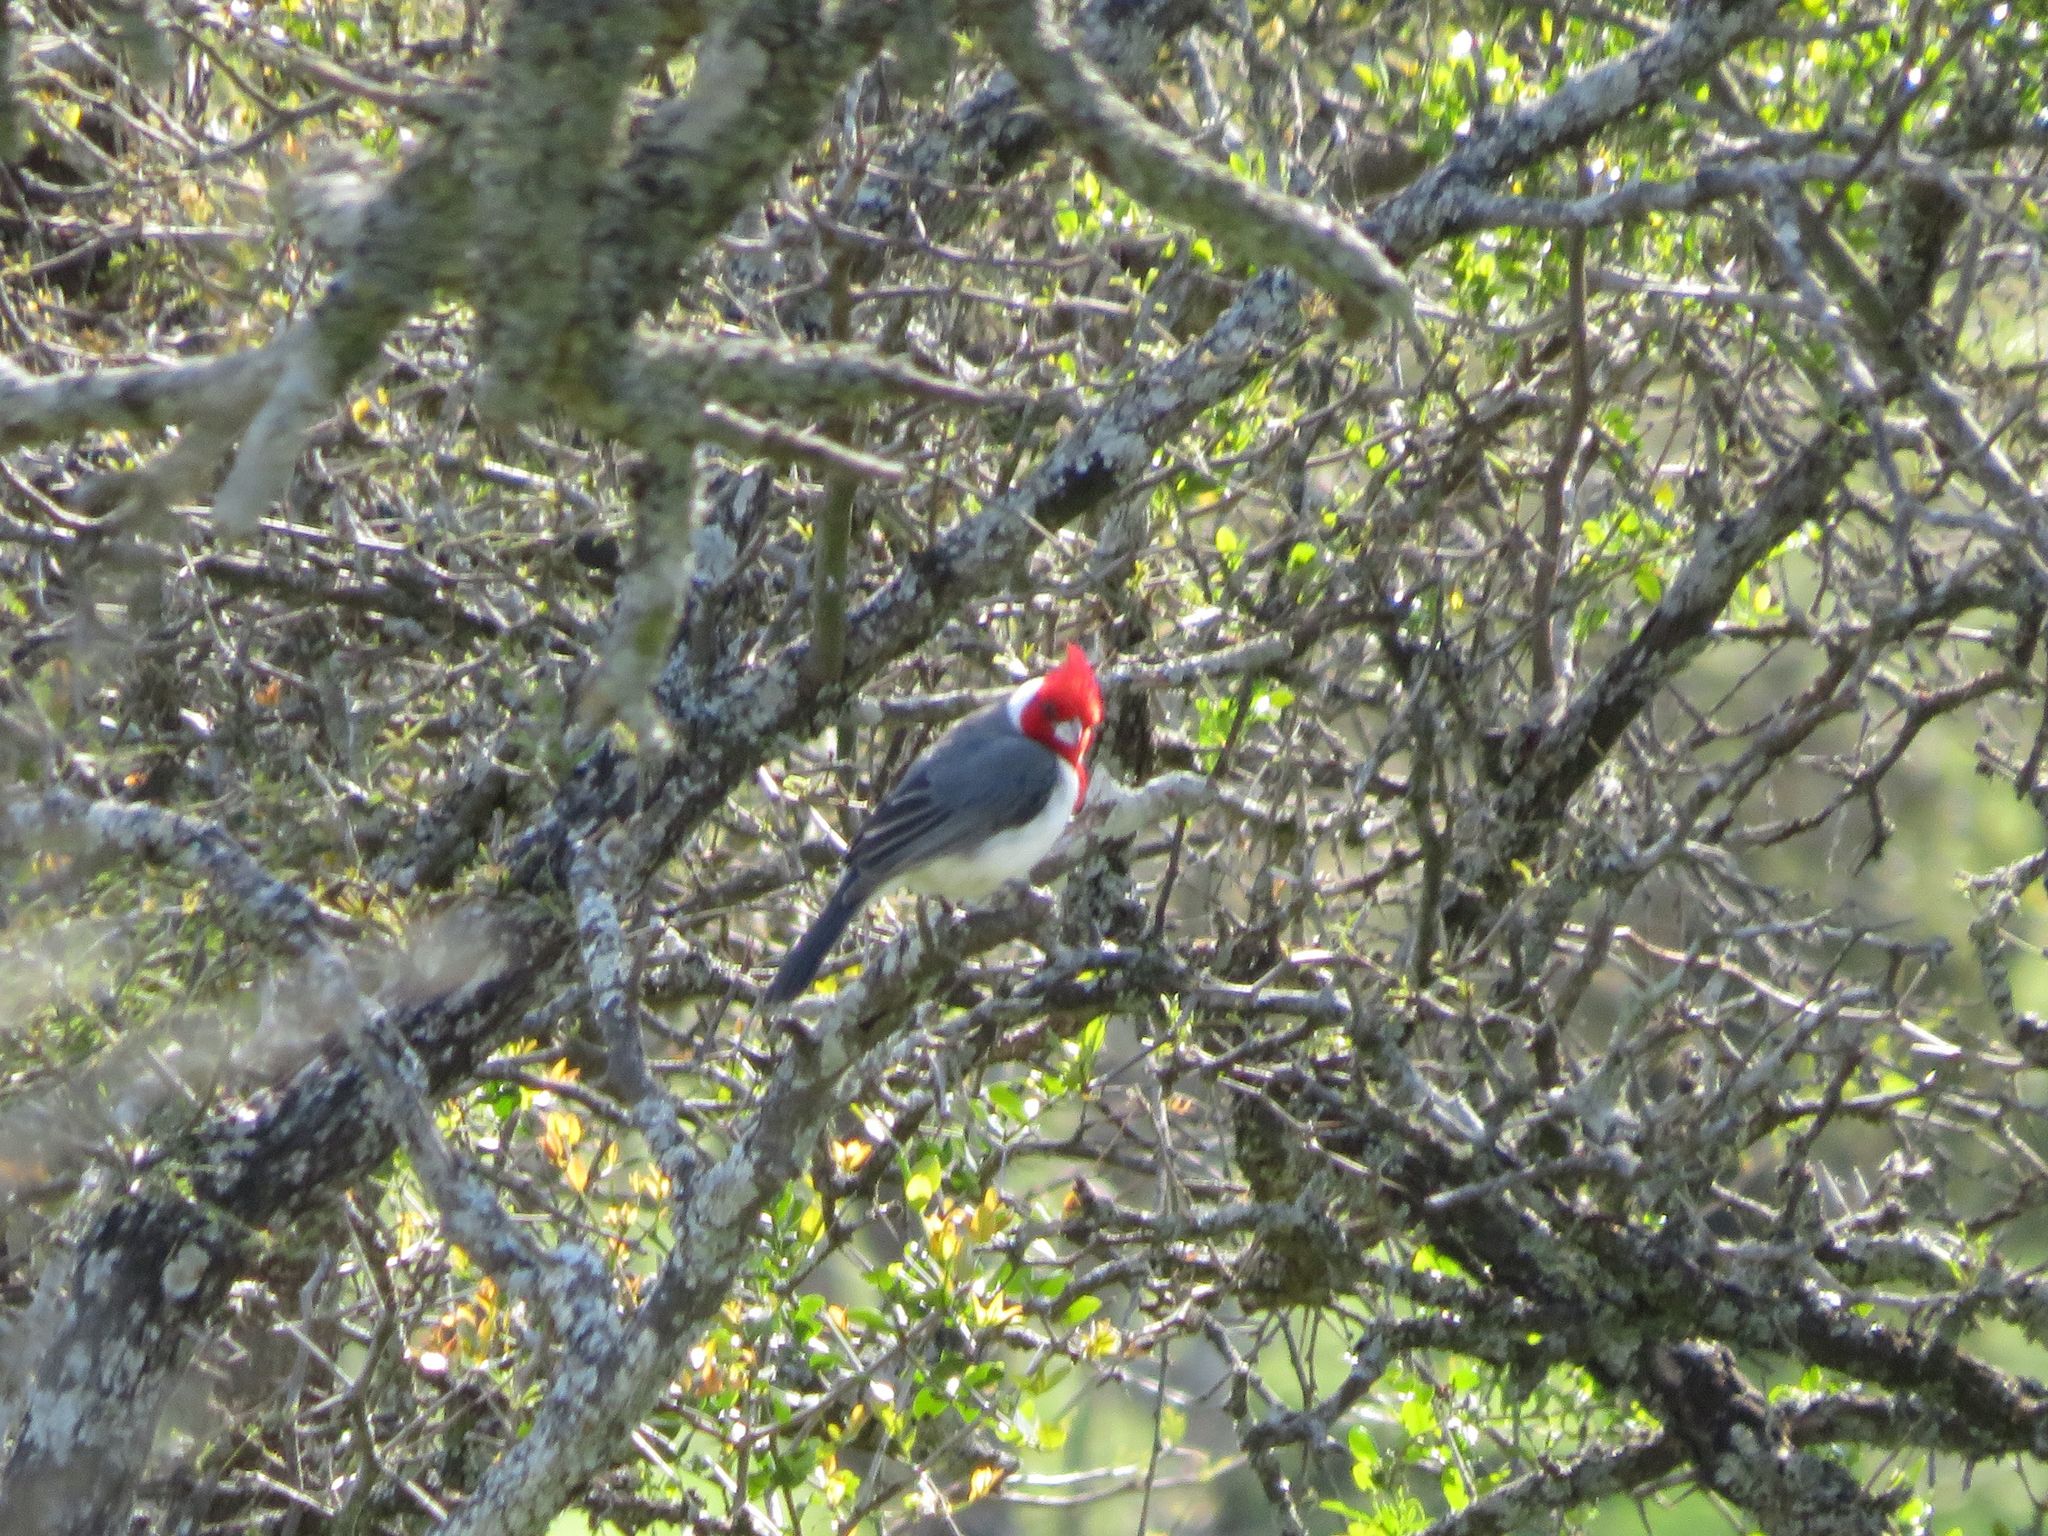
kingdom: Animalia
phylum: Chordata
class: Aves
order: Passeriformes
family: Thraupidae
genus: Paroaria
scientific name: Paroaria coronata
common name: Red-crested cardinal
